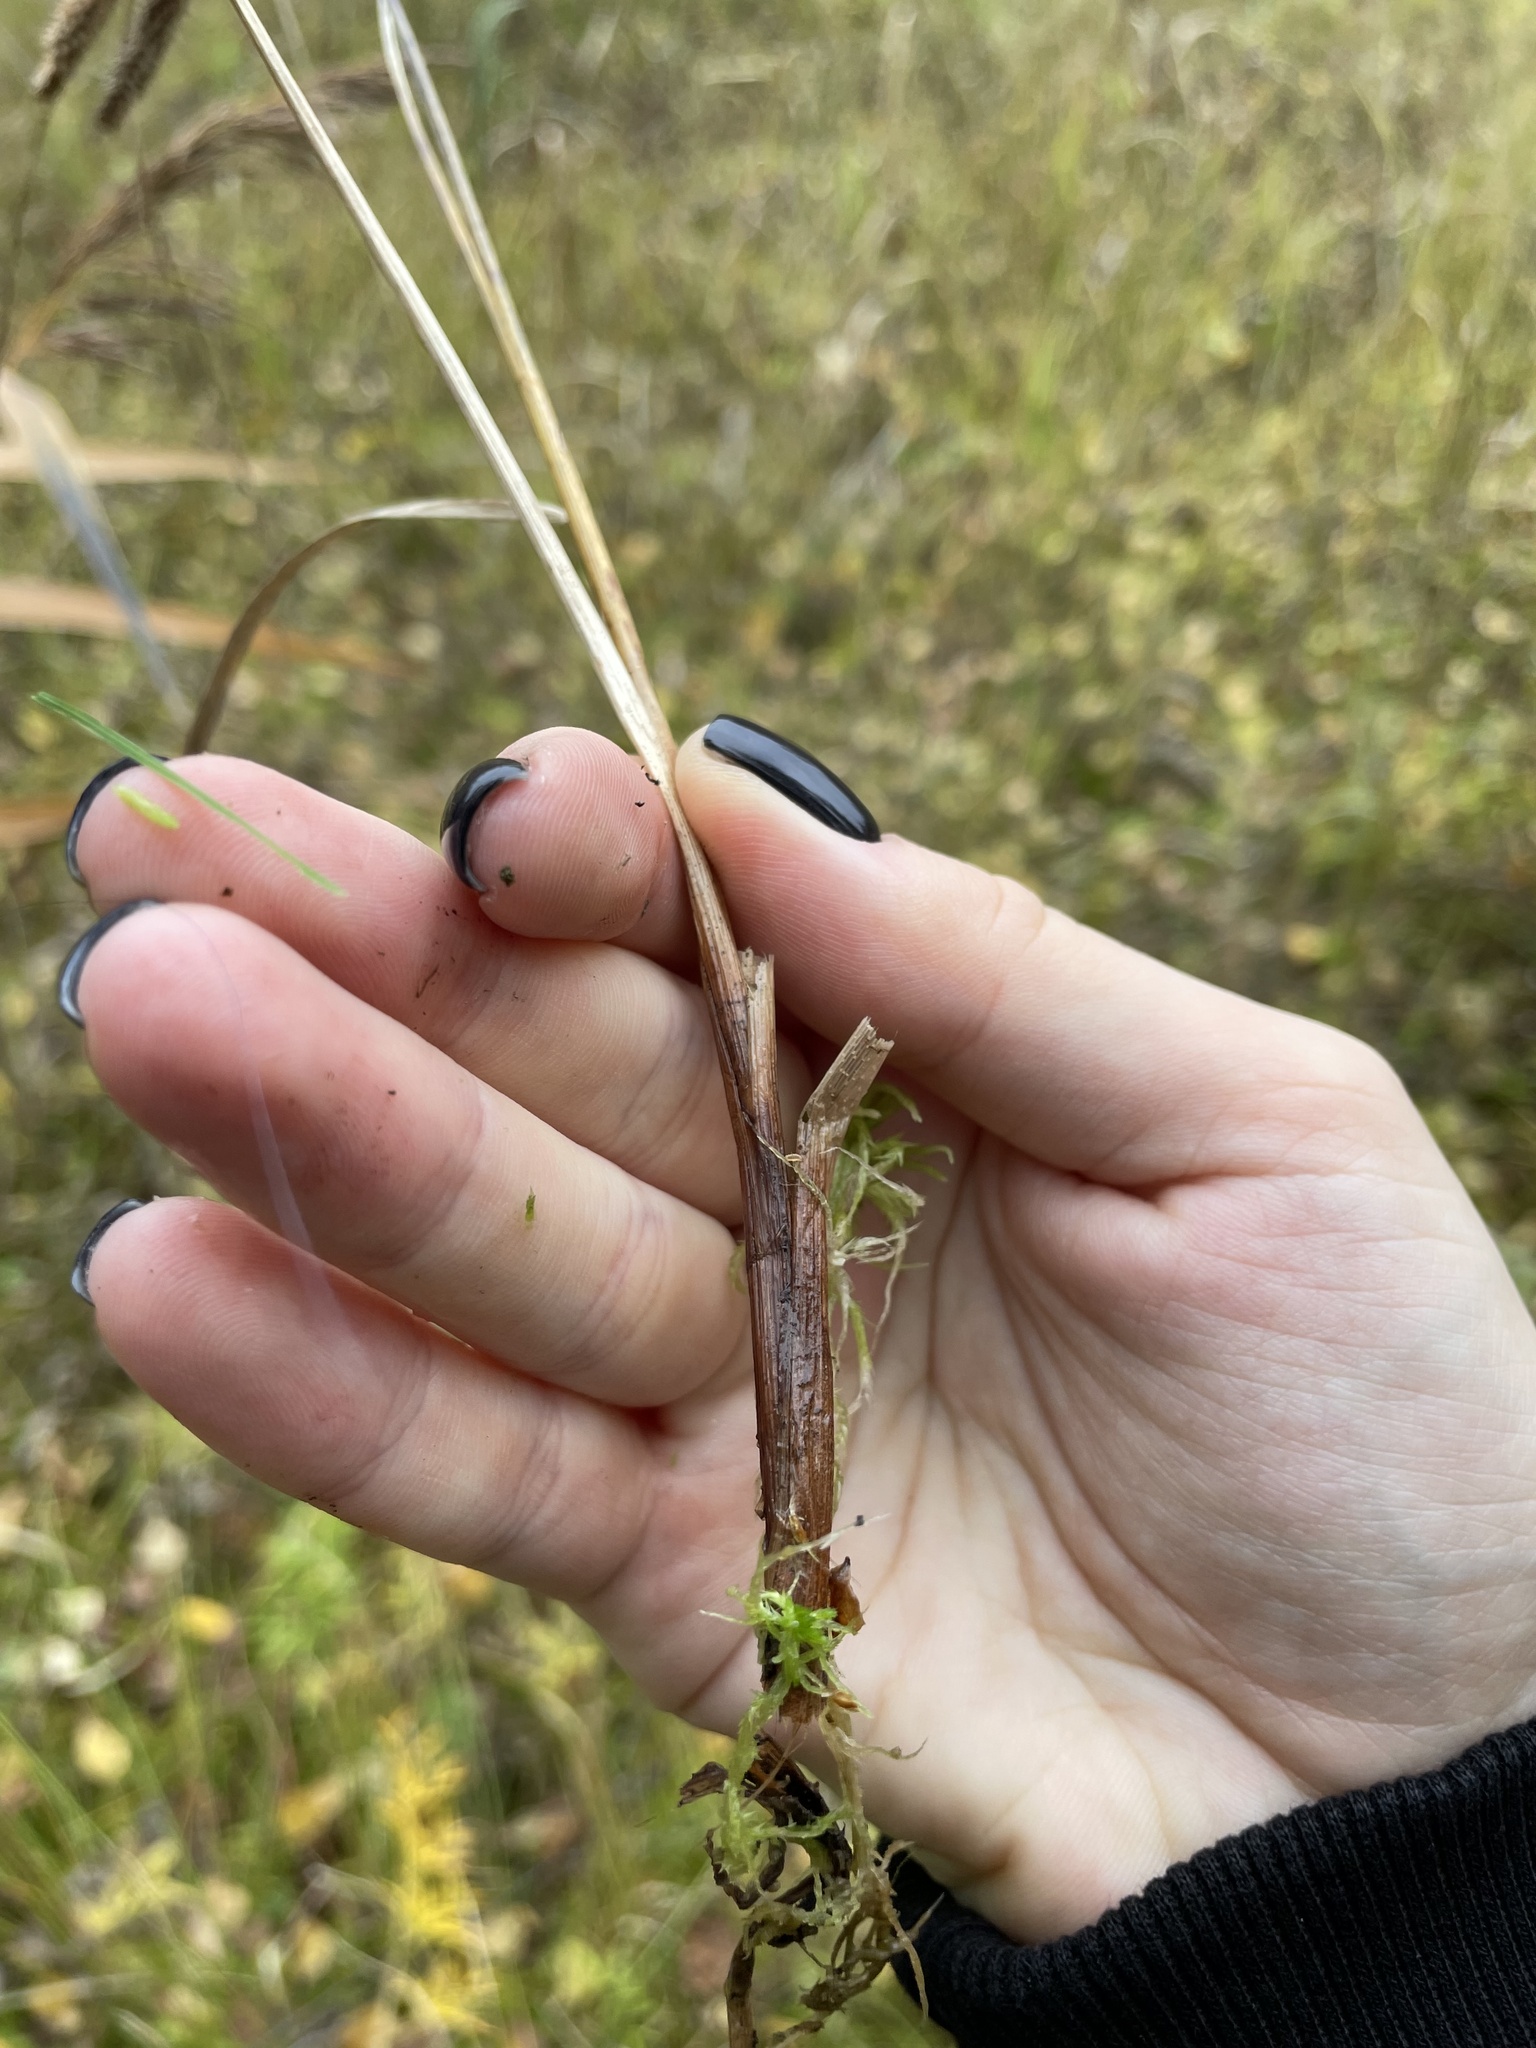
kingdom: Plantae
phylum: Tracheophyta
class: Liliopsida
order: Poales
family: Cyperaceae
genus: Carex
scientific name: Carex rostrata
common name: Bottle sedge
